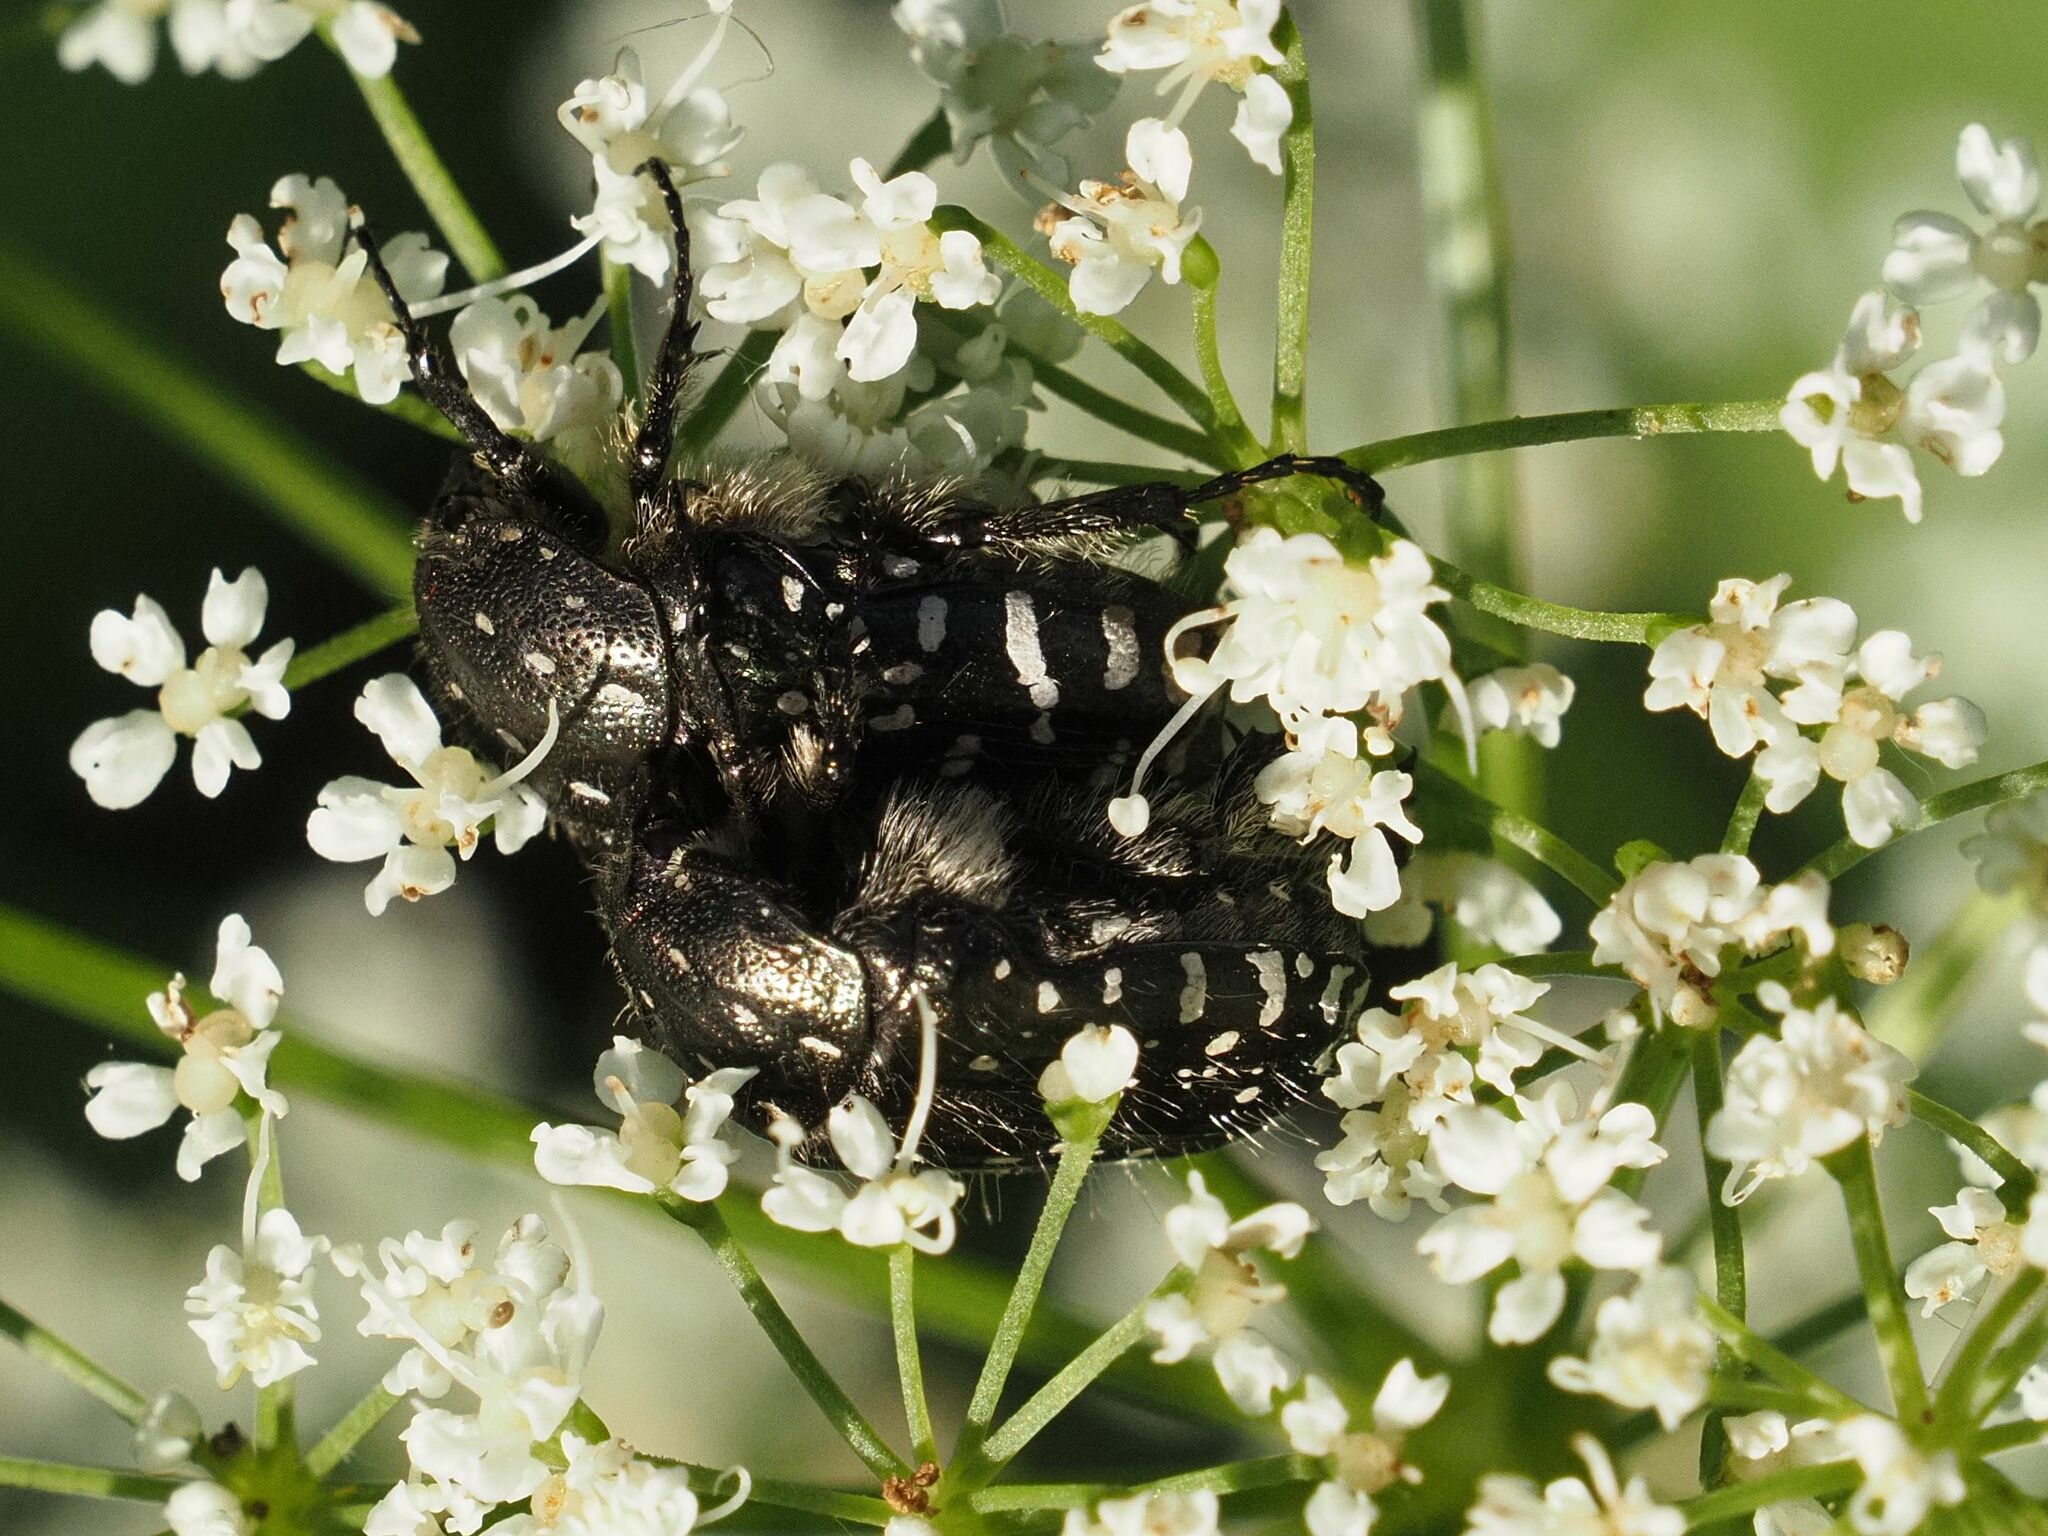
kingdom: Animalia
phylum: Arthropoda
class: Insecta
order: Coleoptera
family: Scarabaeidae
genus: Oxythyrea
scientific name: Oxythyrea funesta
